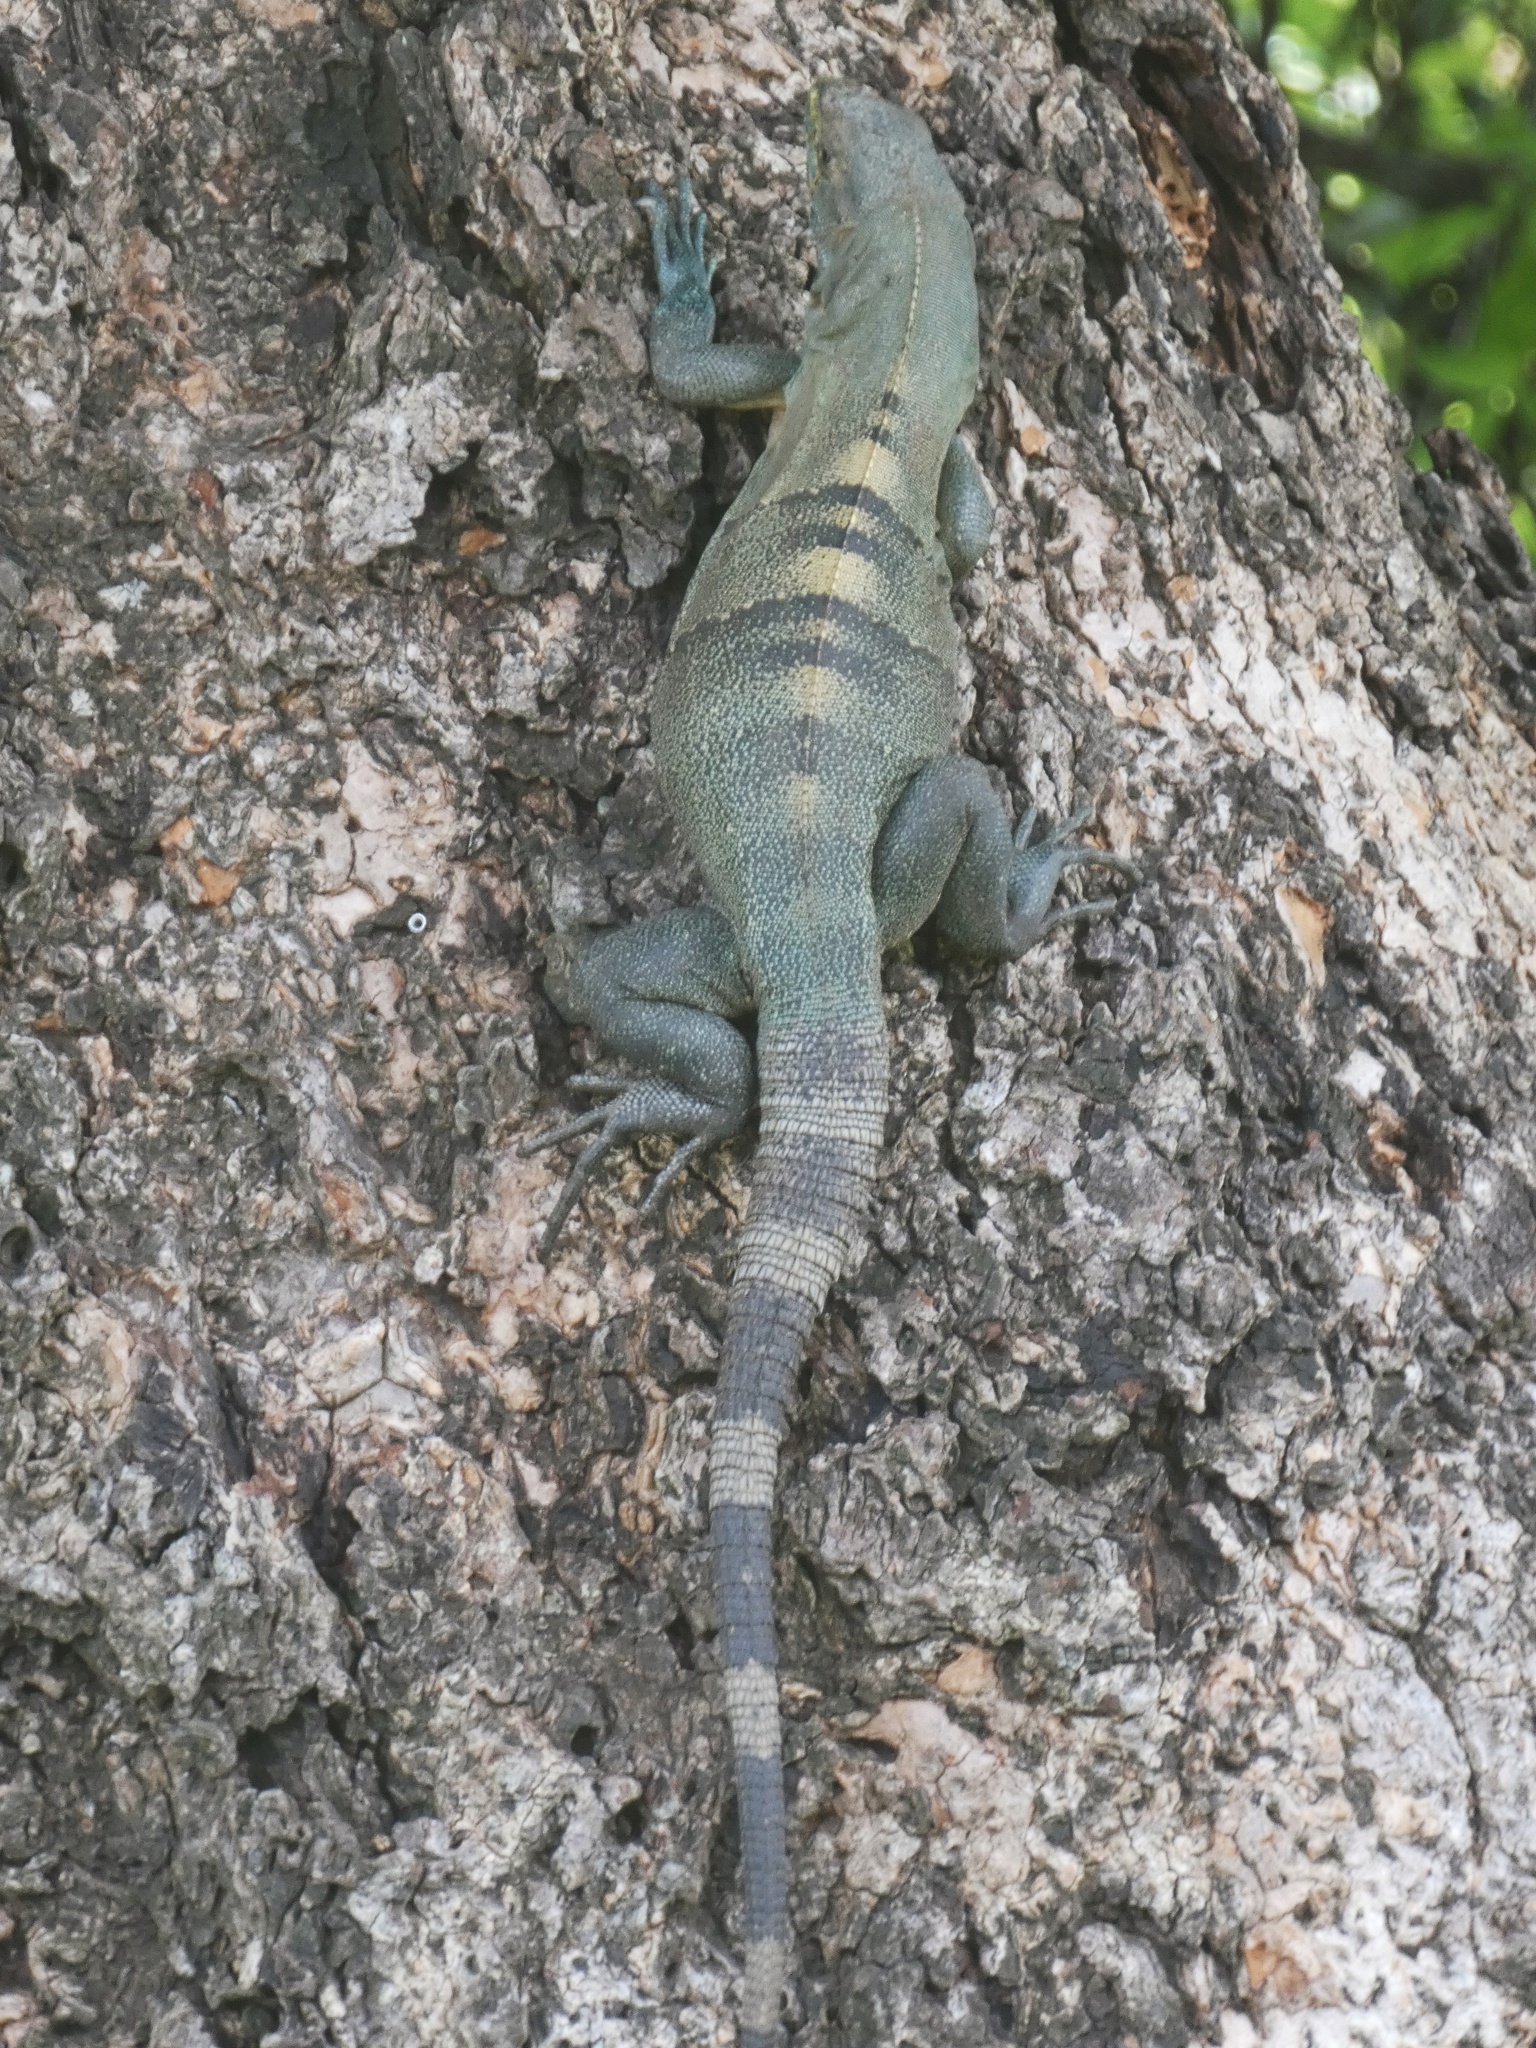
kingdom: Animalia
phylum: Chordata
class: Squamata
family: Iguanidae
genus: Ctenosaura
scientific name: Ctenosaura similis
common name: Black spiny-tailed iguana
